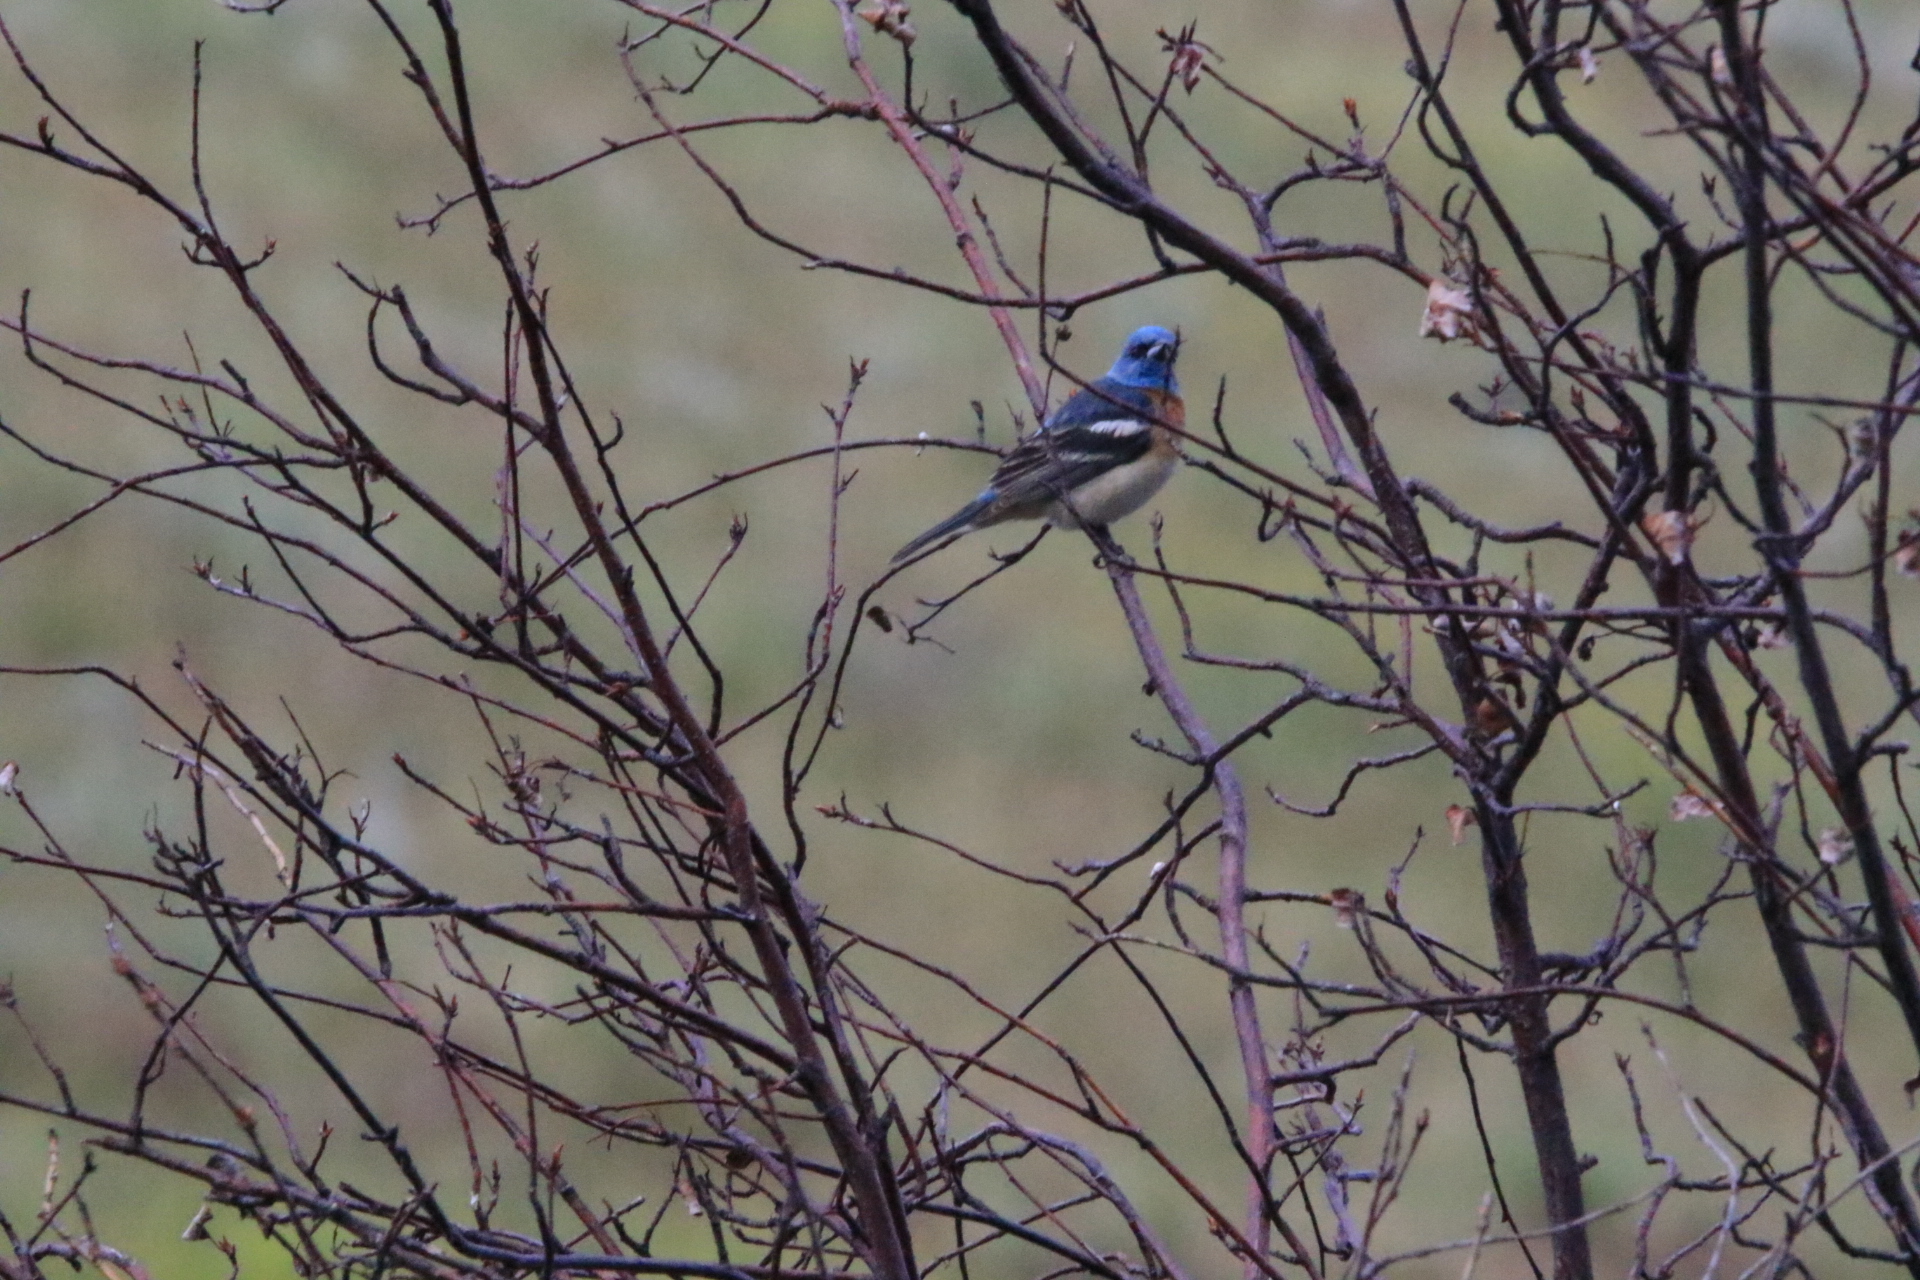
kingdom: Animalia
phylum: Chordata
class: Aves
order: Passeriformes
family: Cardinalidae
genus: Passerina
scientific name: Passerina amoena
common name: Lazuli bunting
